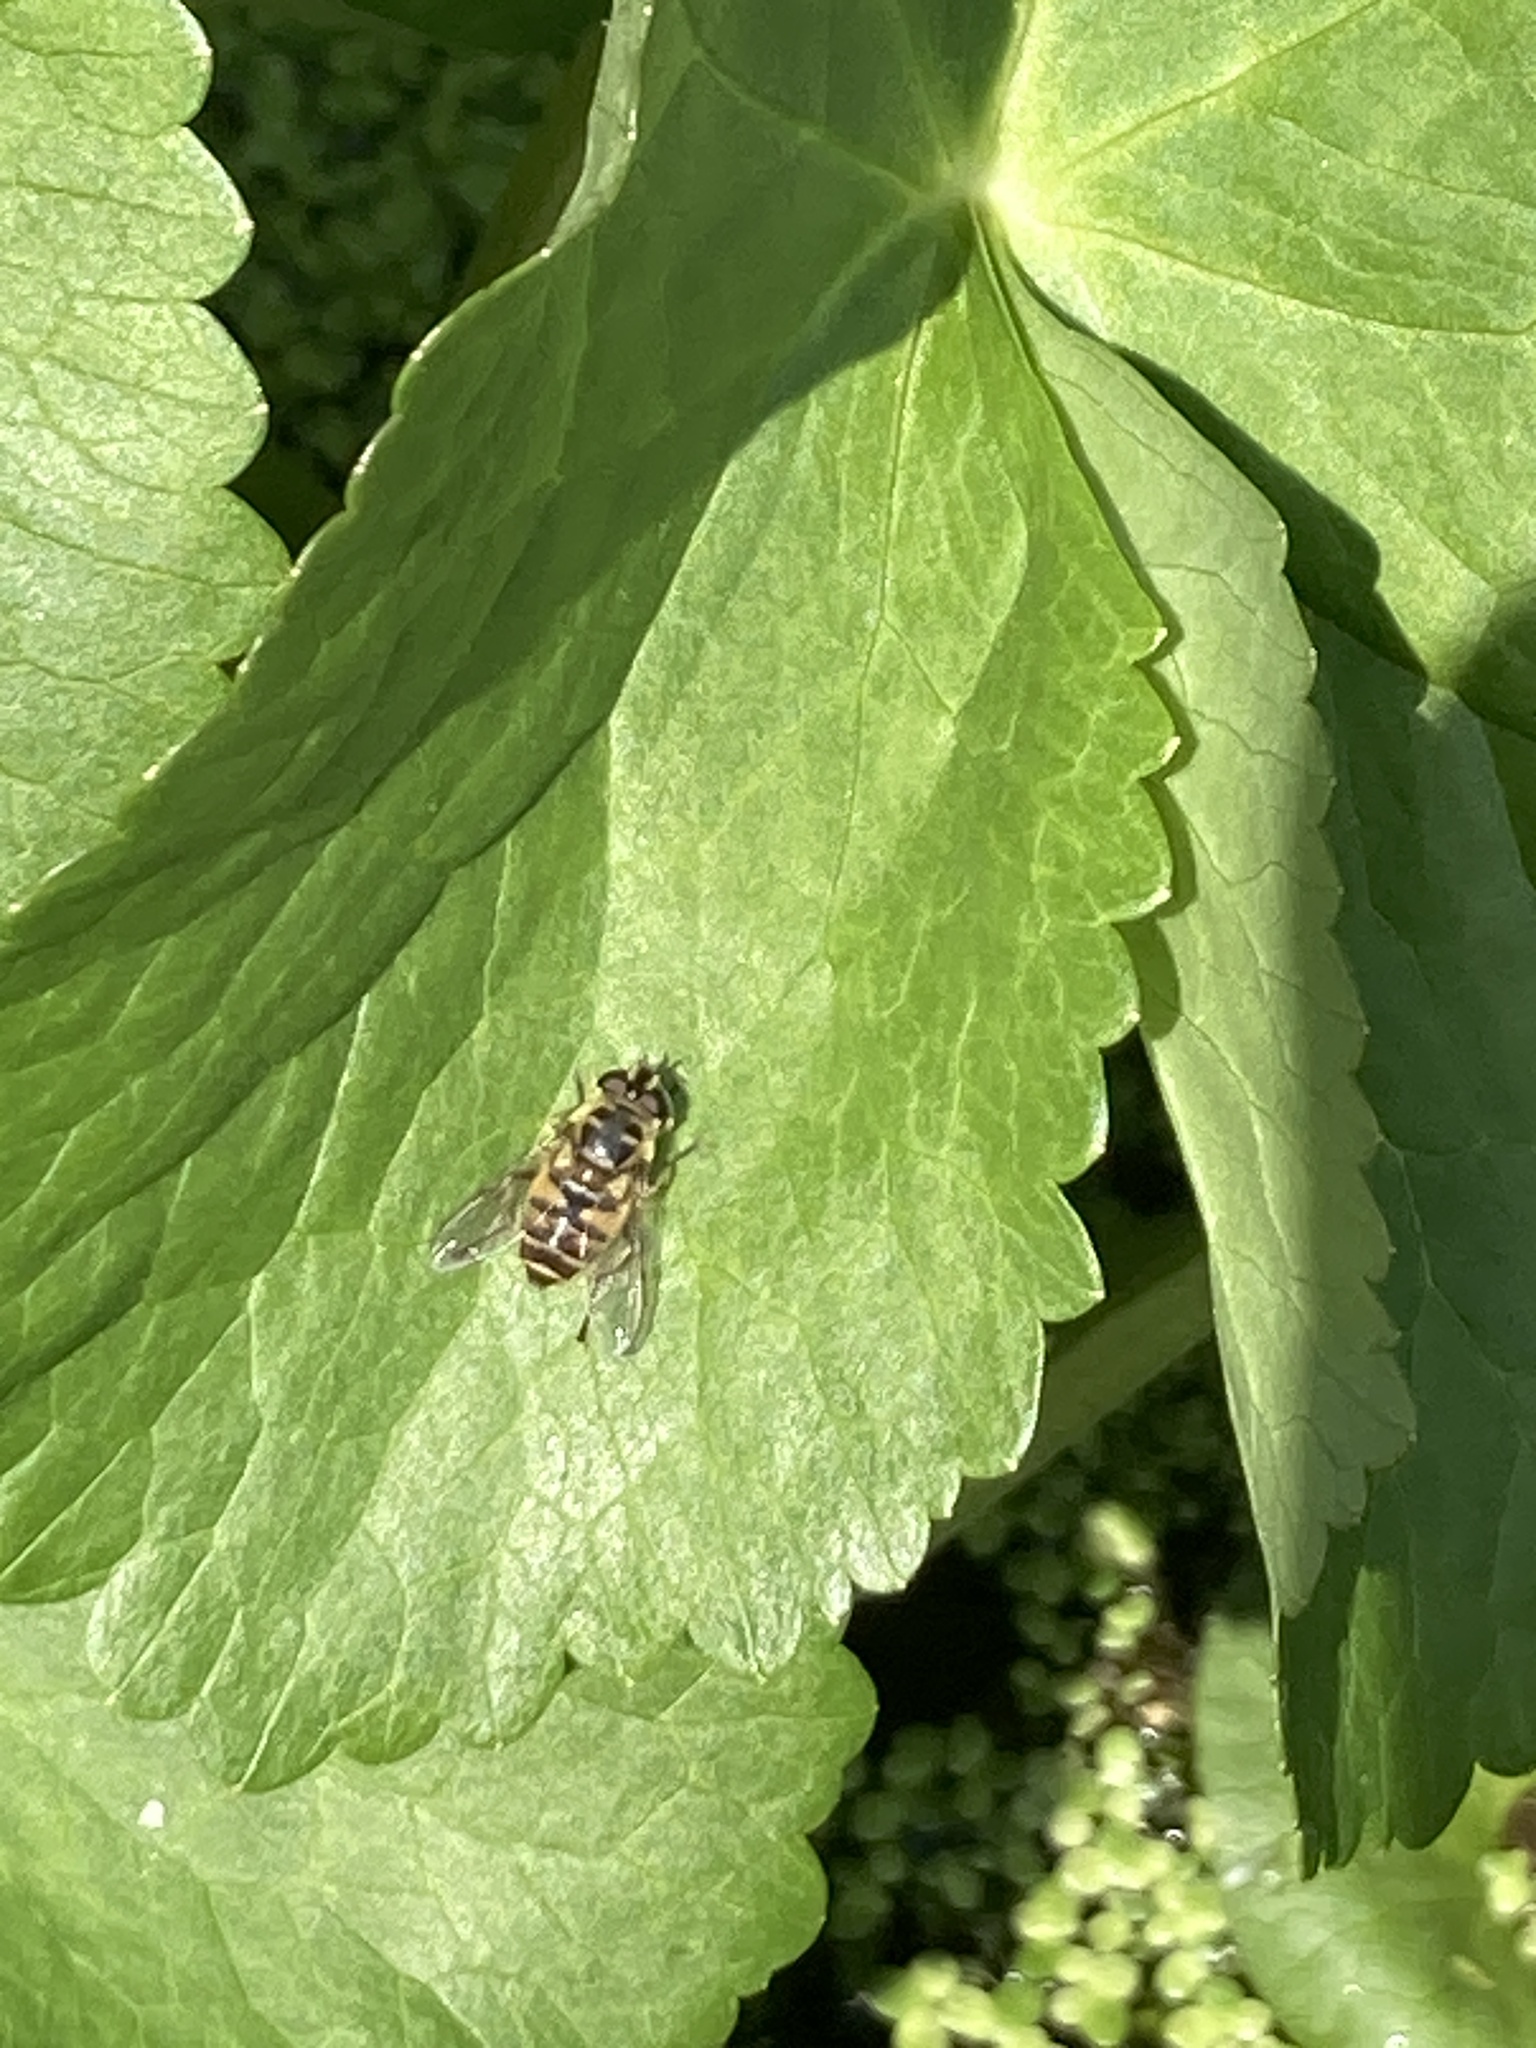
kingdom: Animalia
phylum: Arthropoda
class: Insecta
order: Diptera
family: Syrphidae
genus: Myathropa
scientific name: Myathropa florea
